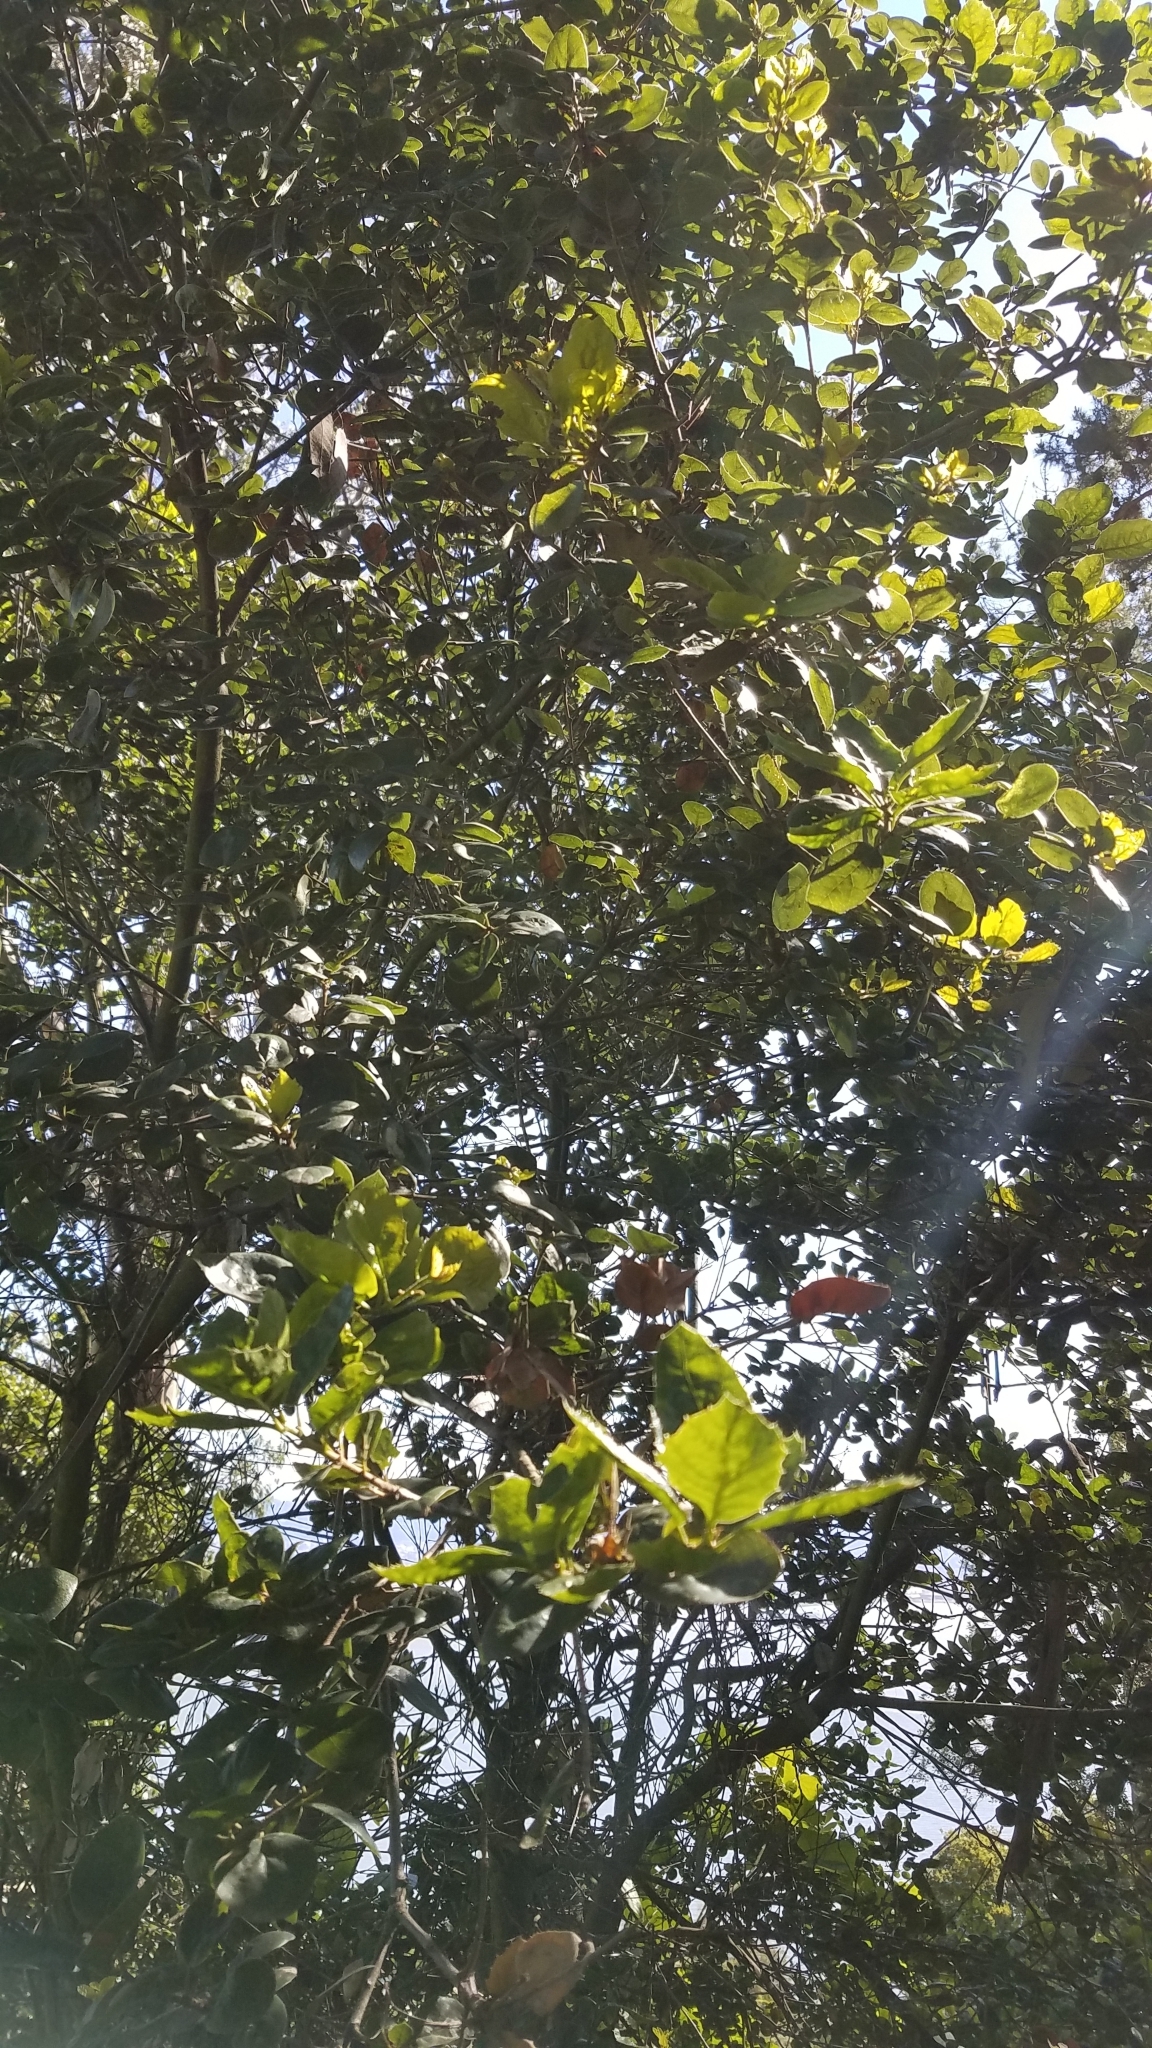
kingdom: Plantae
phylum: Tracheophyta
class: Magnoliopsida
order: Fagales
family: Fagaceae
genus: Quercus
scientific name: Quercus agrifolia
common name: California live oak
